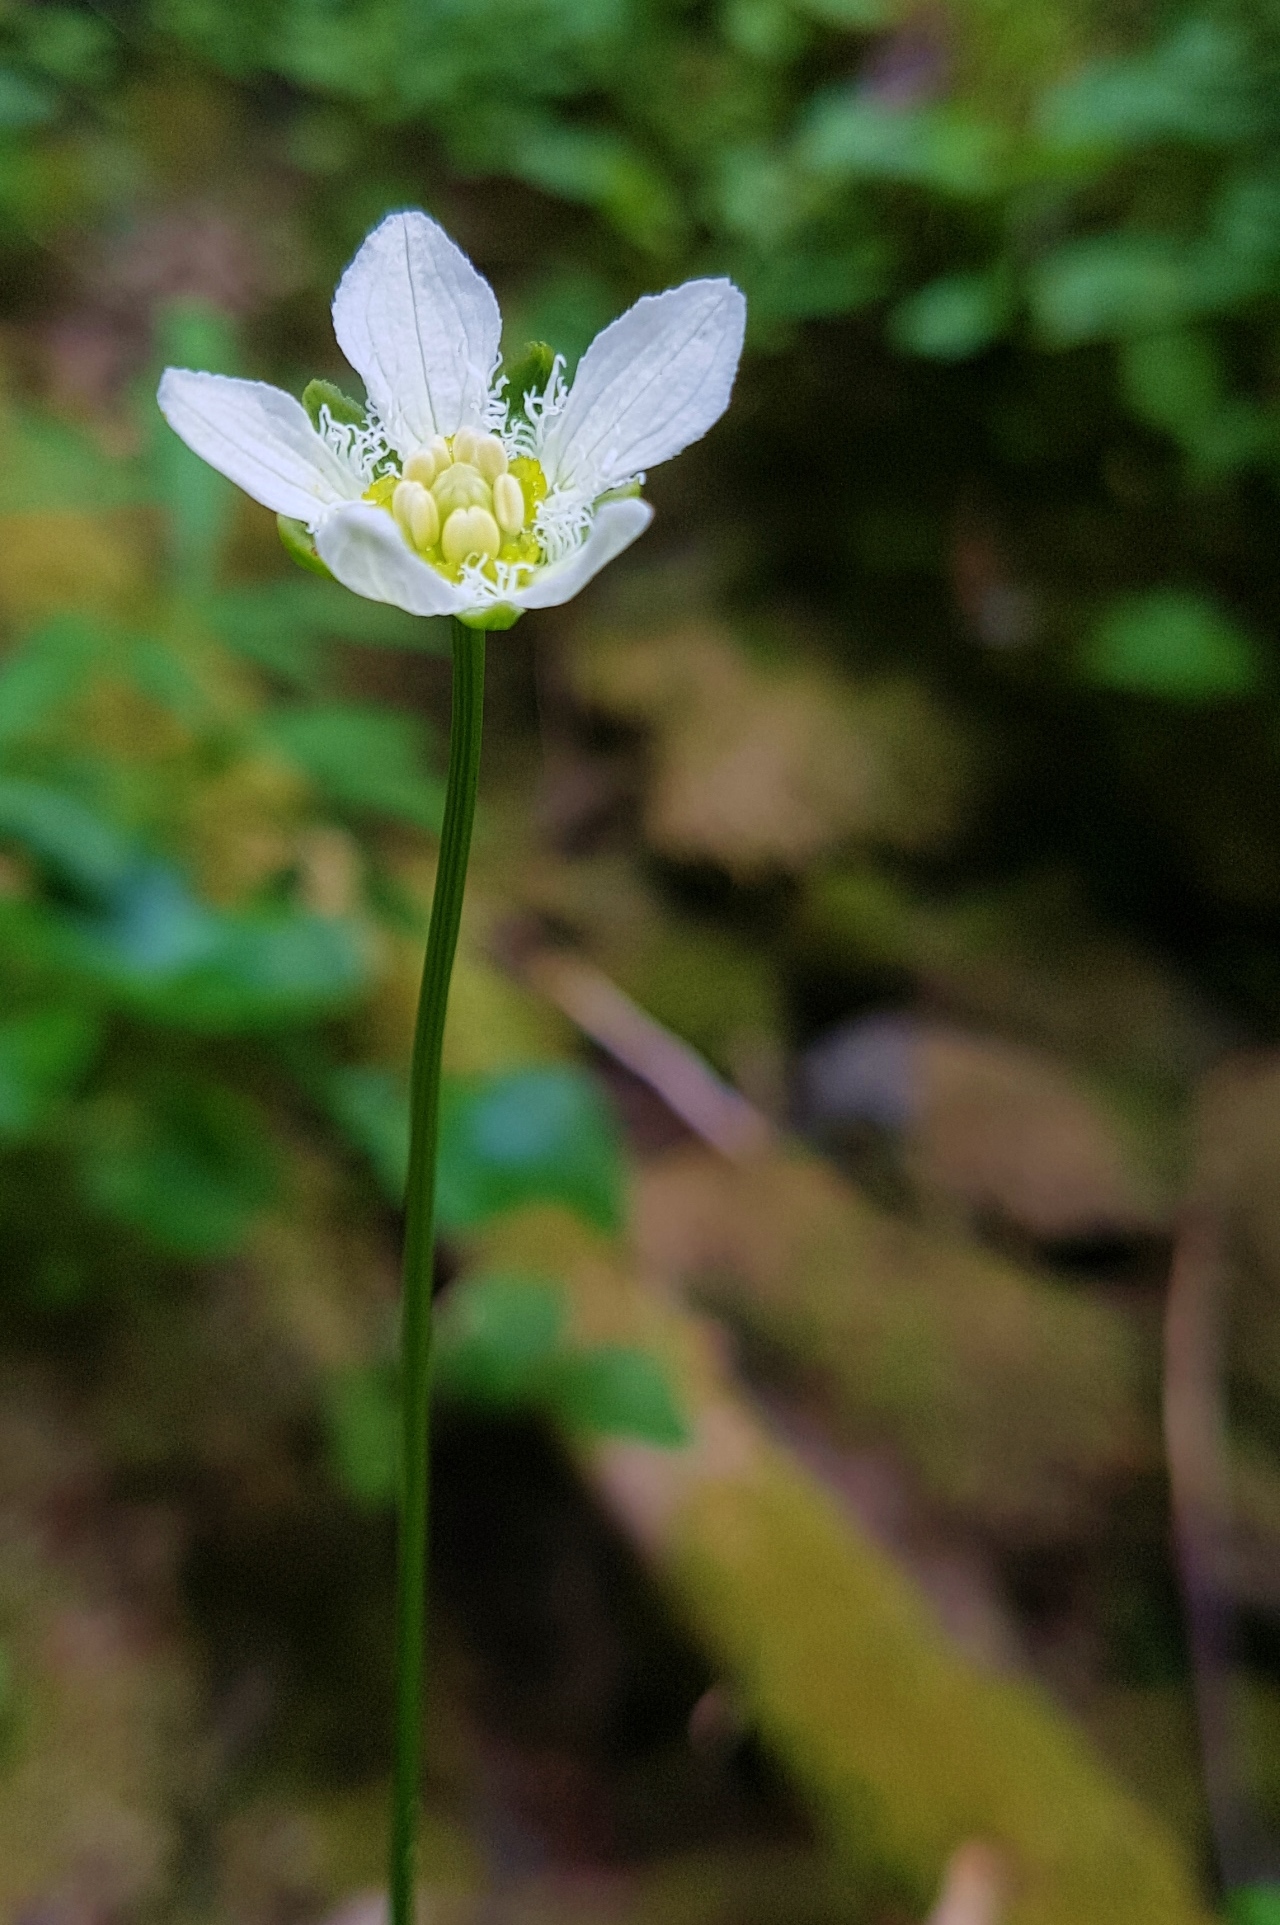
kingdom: Plantae
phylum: Tracheophyta
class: Magnoliopsida
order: Celastrales
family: Parnassiaceae
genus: Parnassia
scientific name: Parnassia fimbriata
